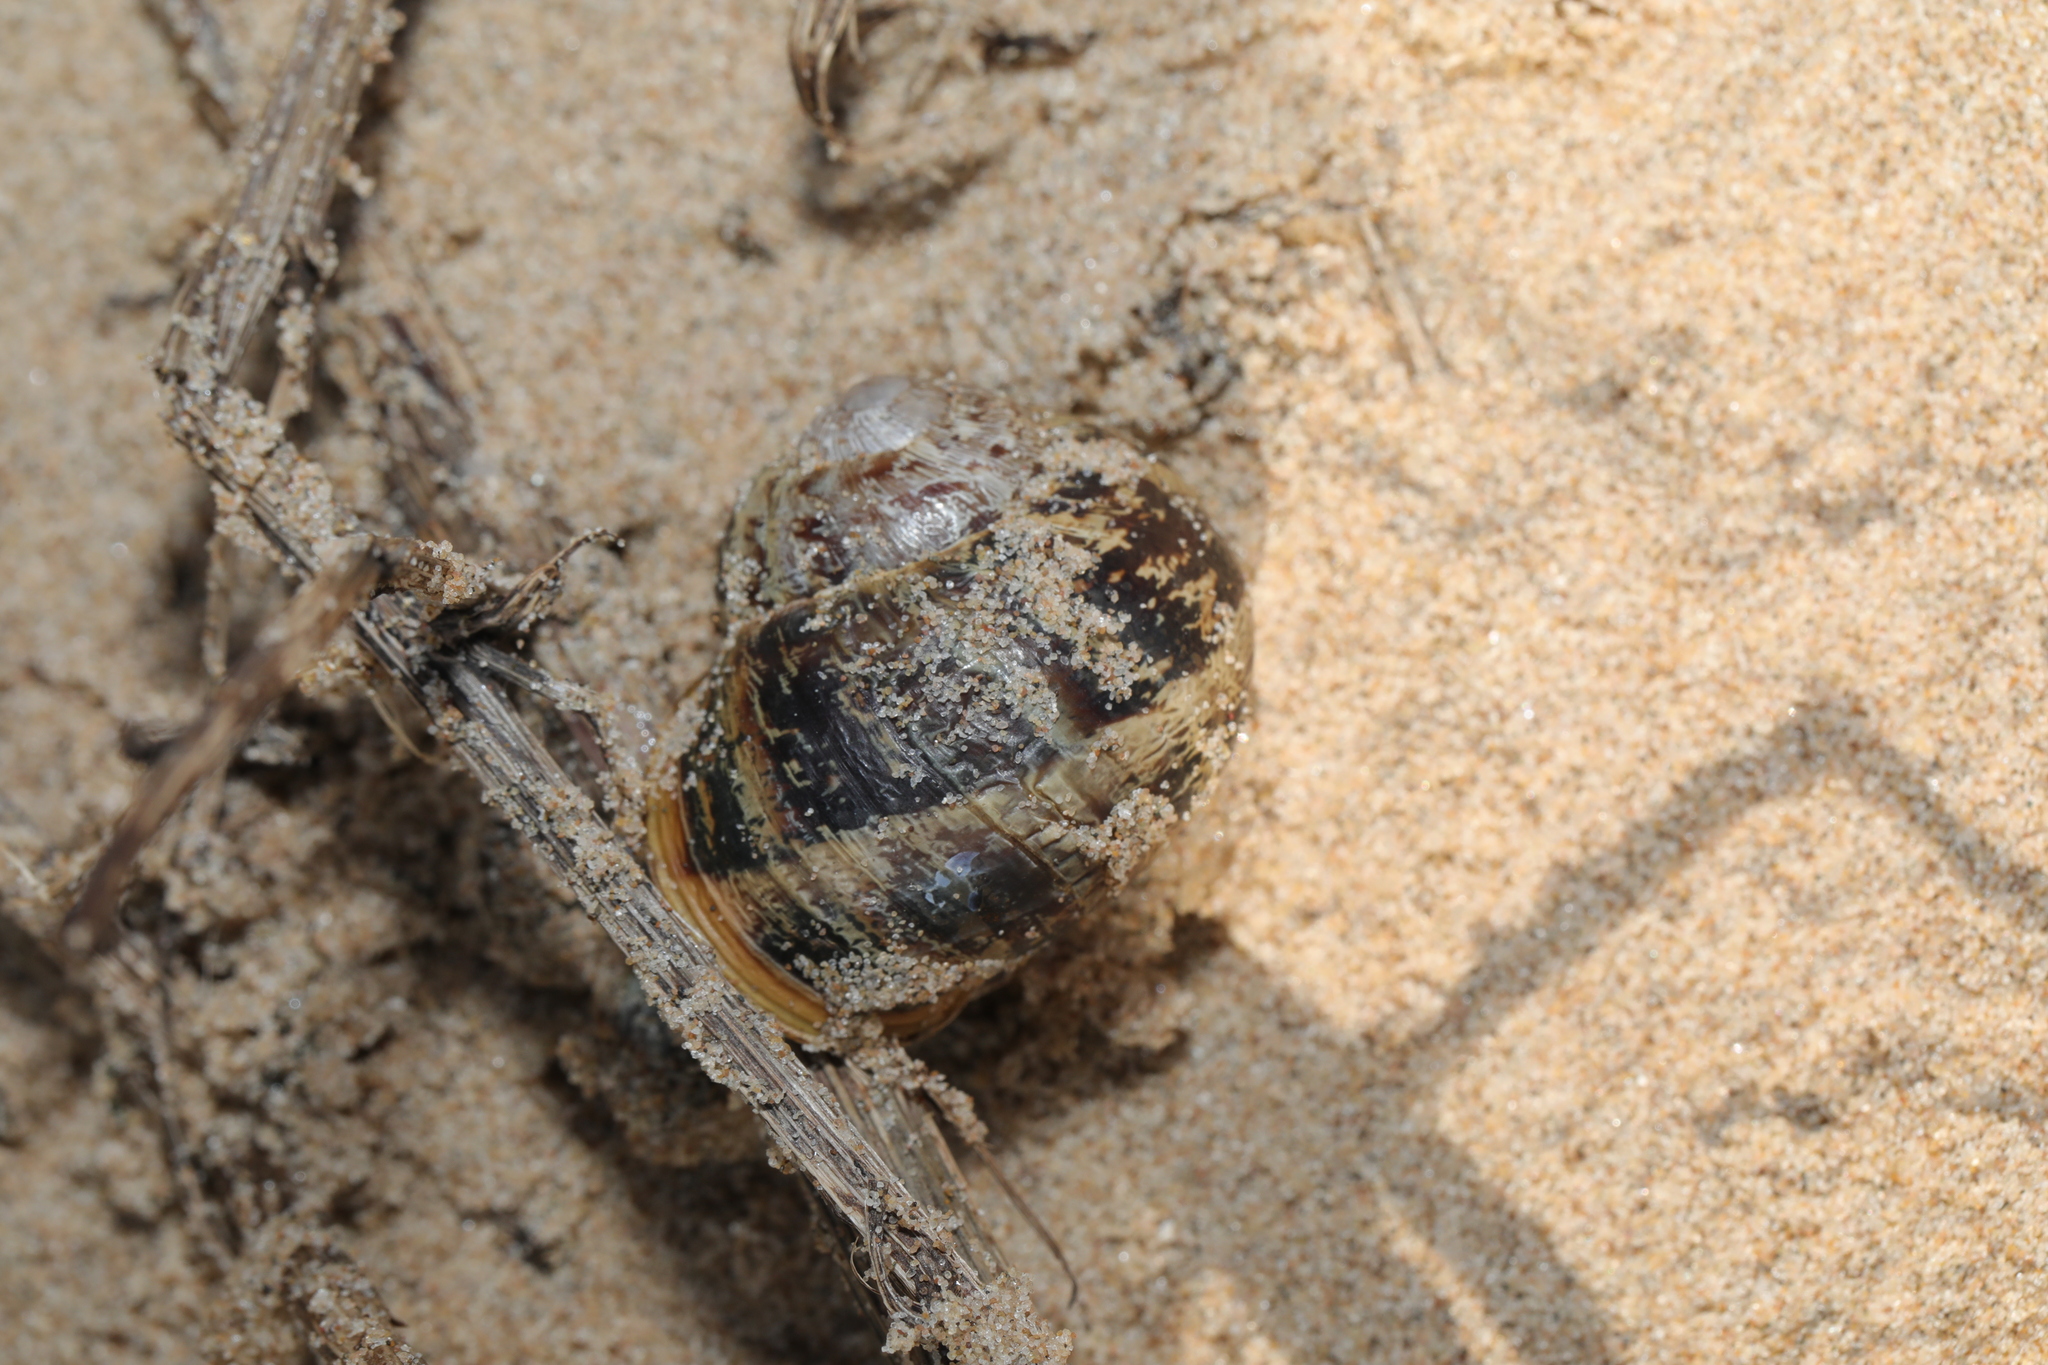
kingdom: Animalia
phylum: Mollusca
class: Gastropoda
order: Stylommatophora
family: Helicidae
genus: Cornu
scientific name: Cornu aspersum
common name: Brown garden snail
